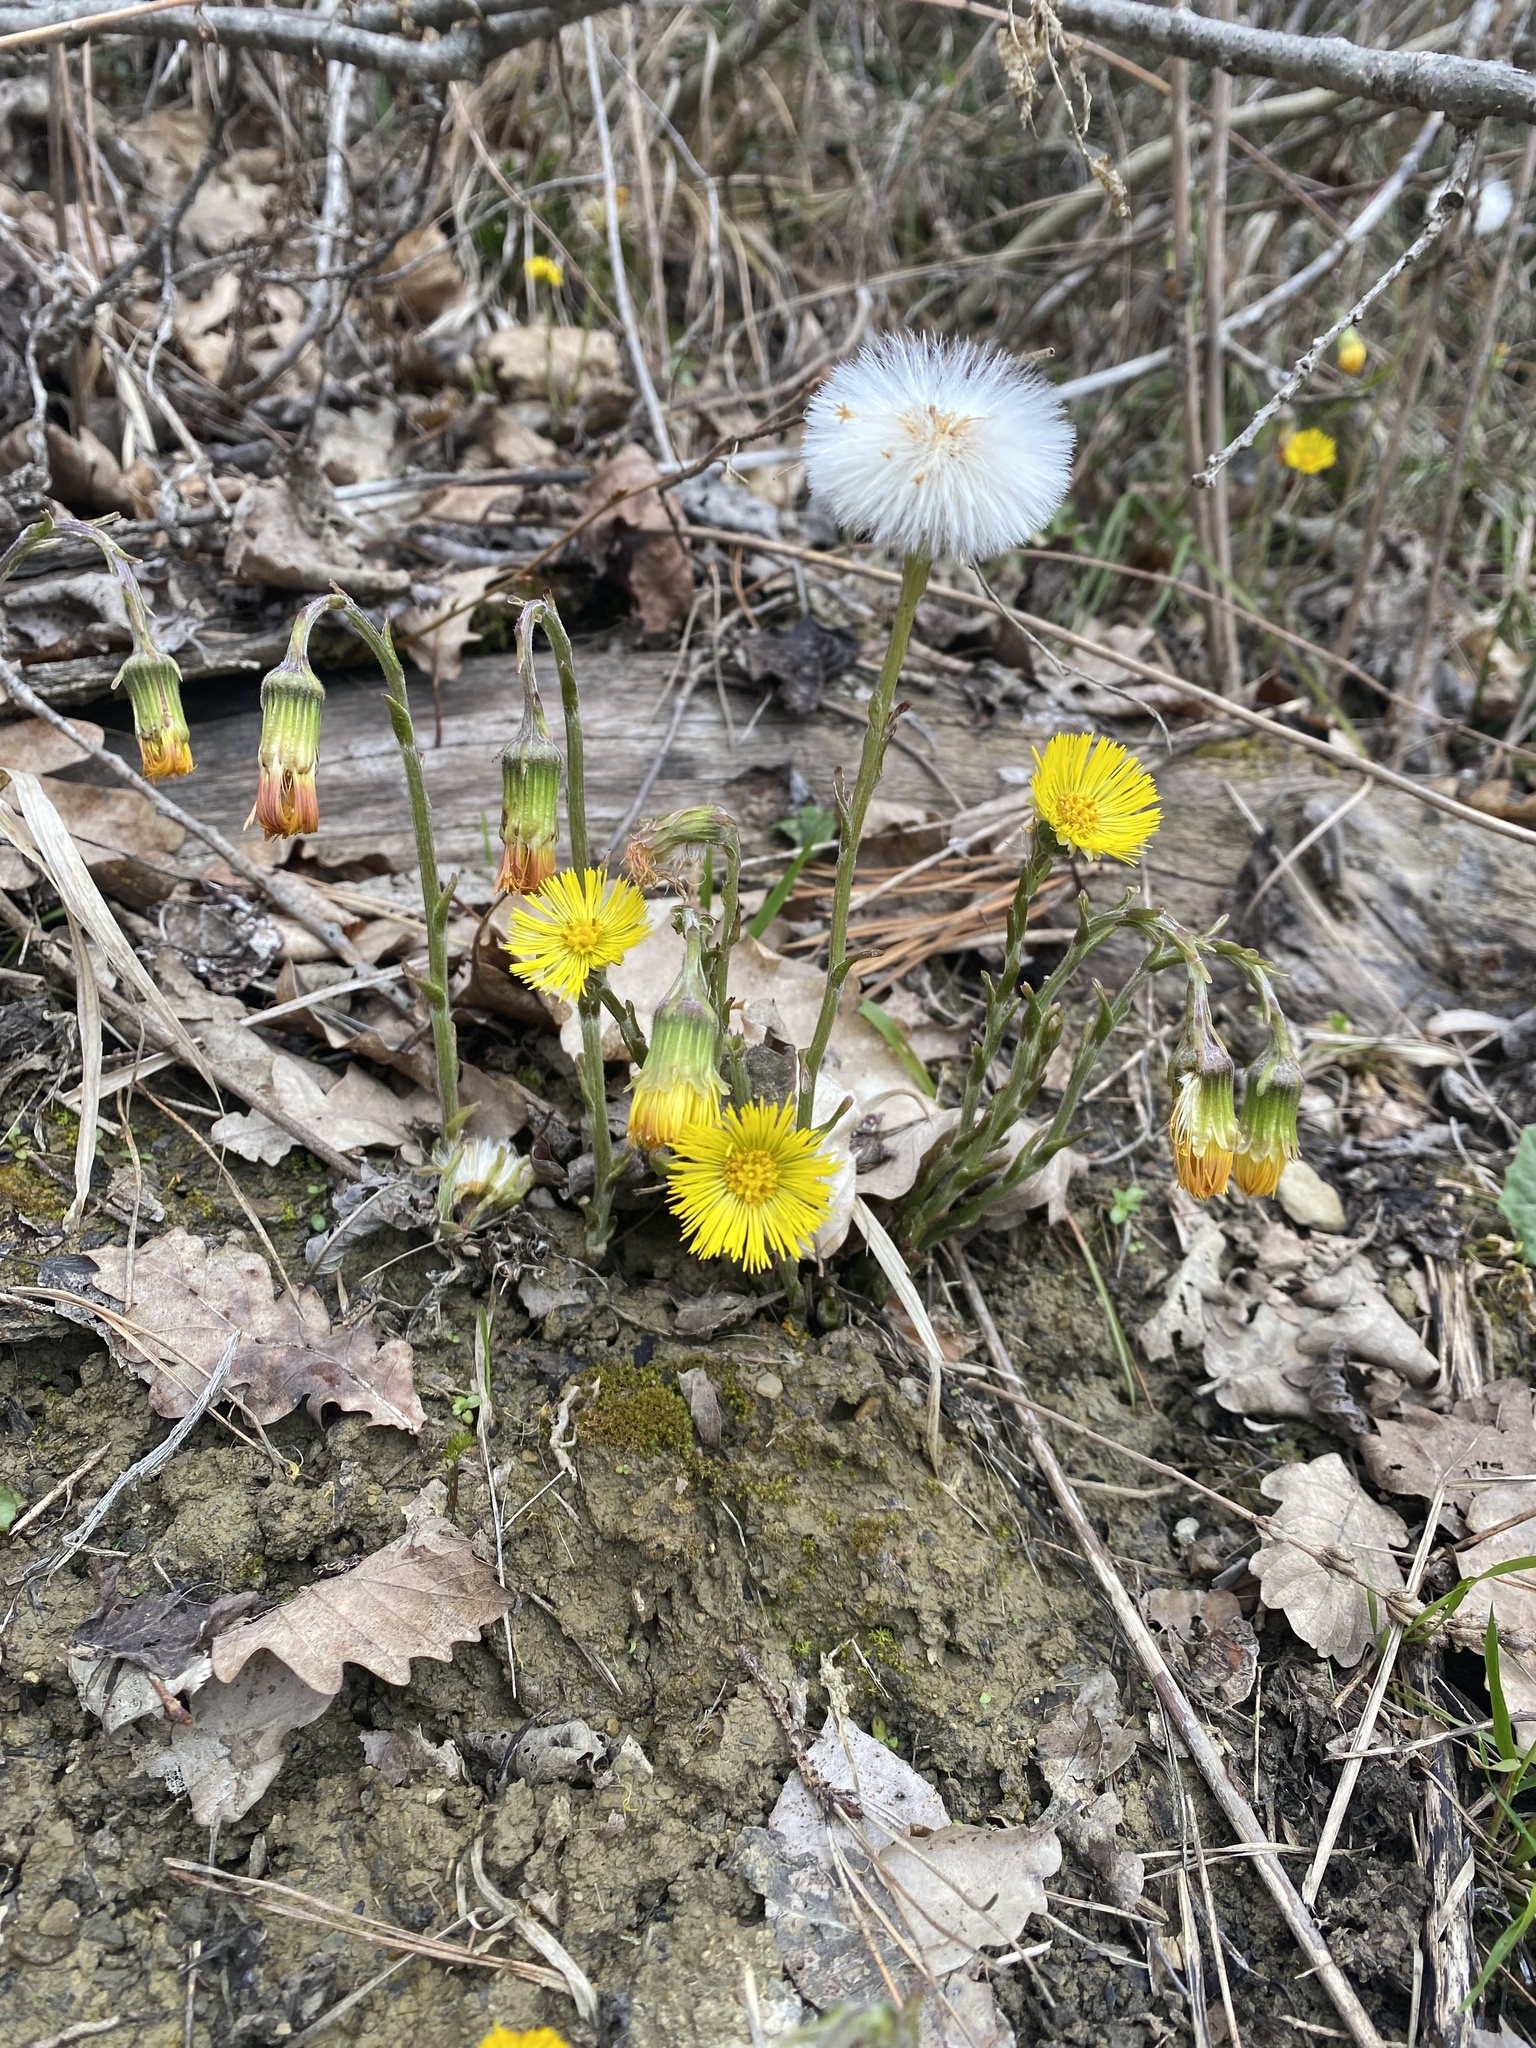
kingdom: Plantae
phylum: Tracheophyta
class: Magnoliopsida
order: Asterales
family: Asteraceae
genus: Tussilago
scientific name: Tussilago farfara
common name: Coltsfoot
